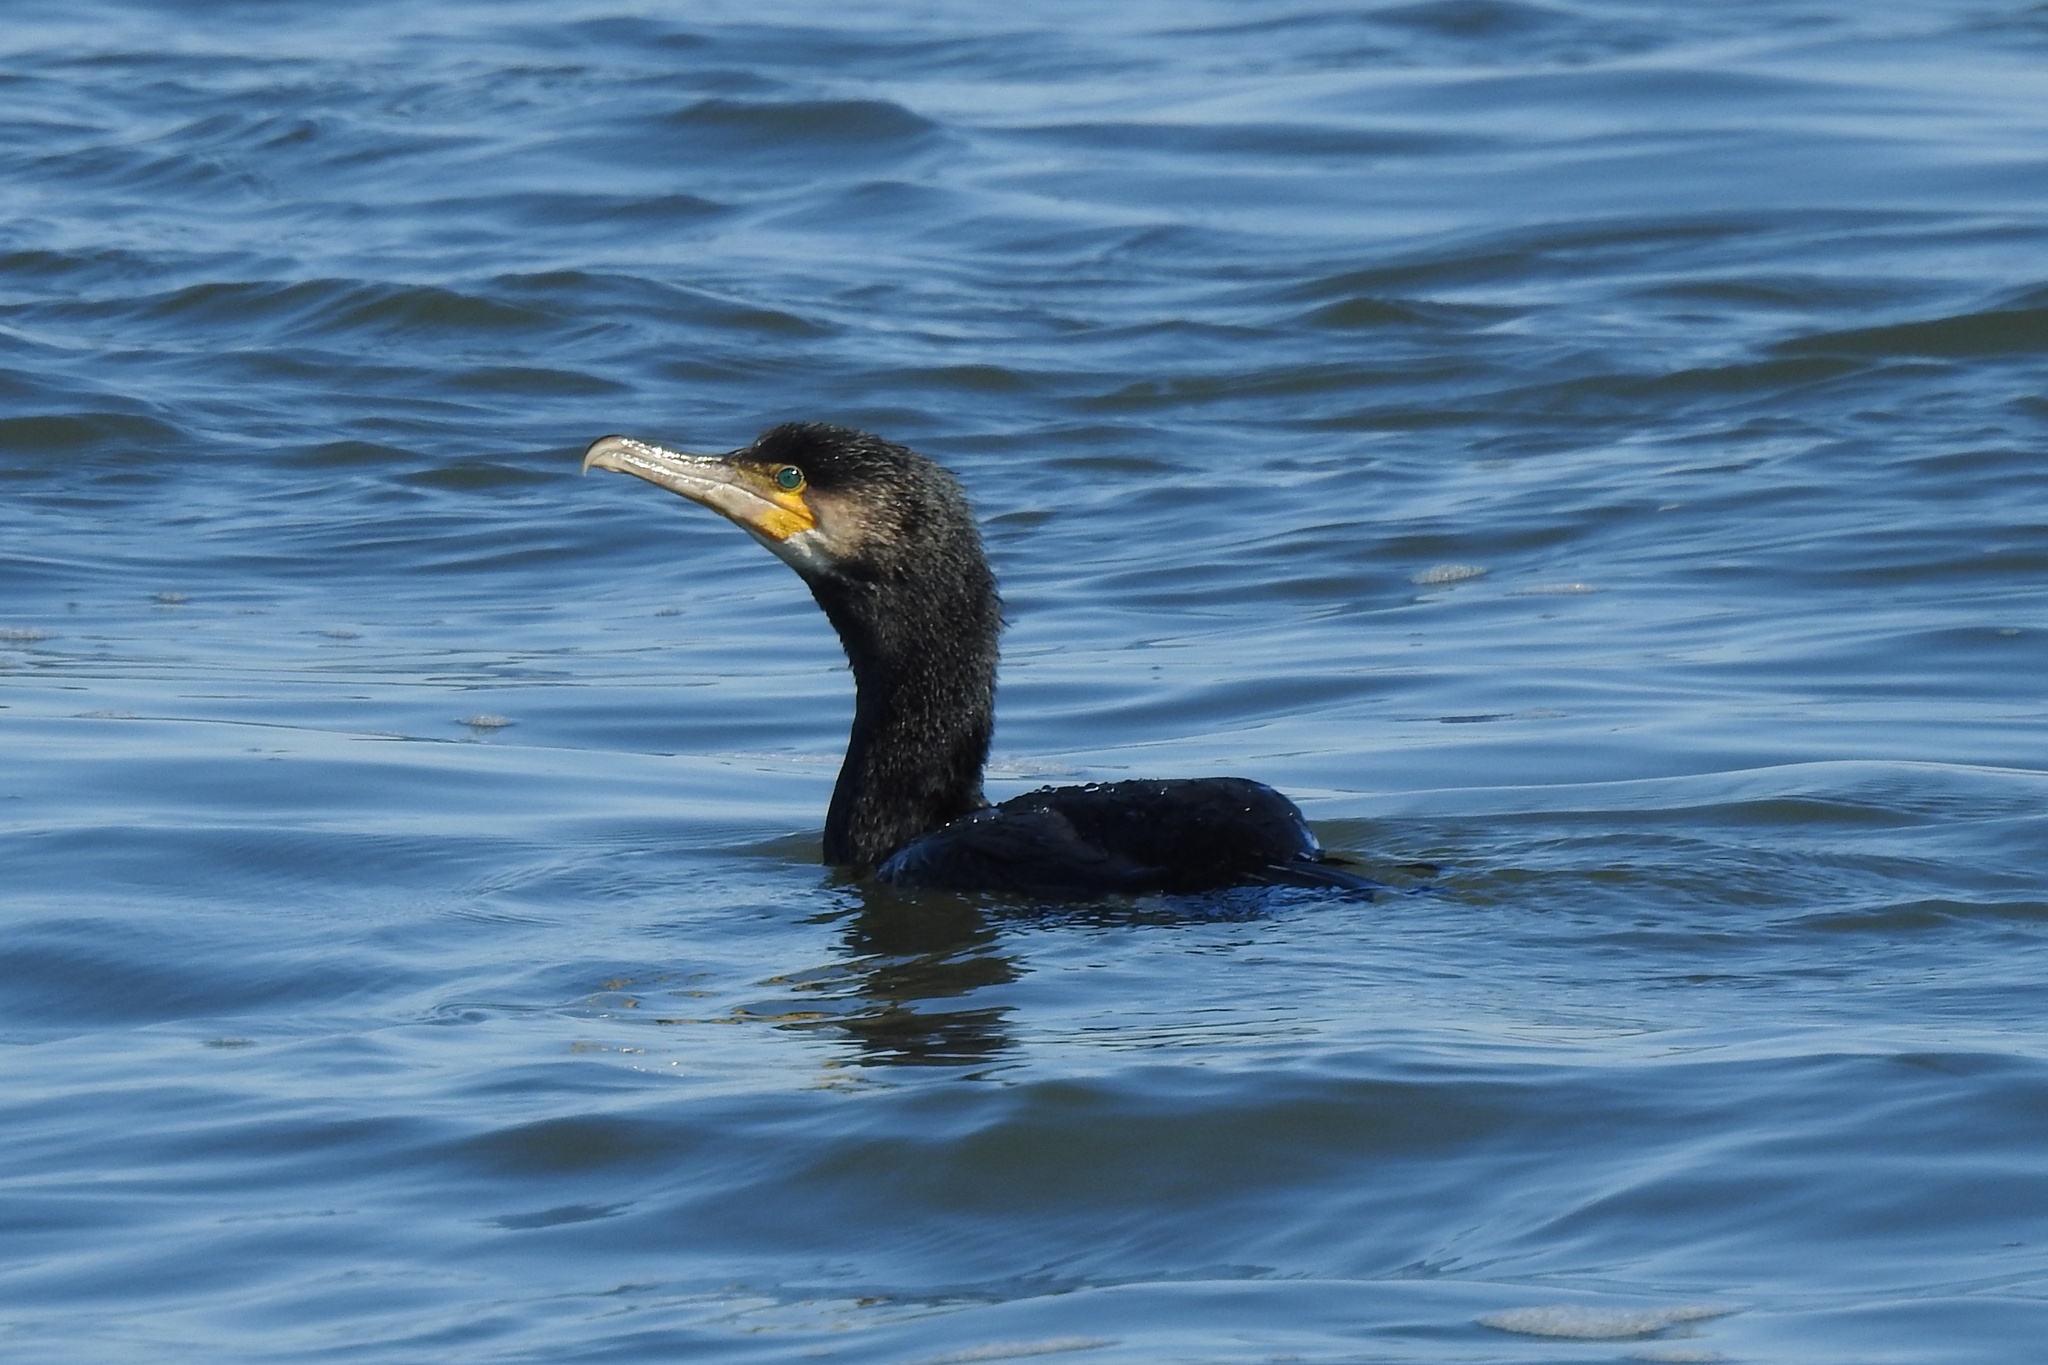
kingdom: Animalia
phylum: Chordata
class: Aves
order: Suliformes
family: Phalacrocoracidae
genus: Phalacrocorax
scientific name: Phalacrocorax auritus
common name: Double-crested cormorant
